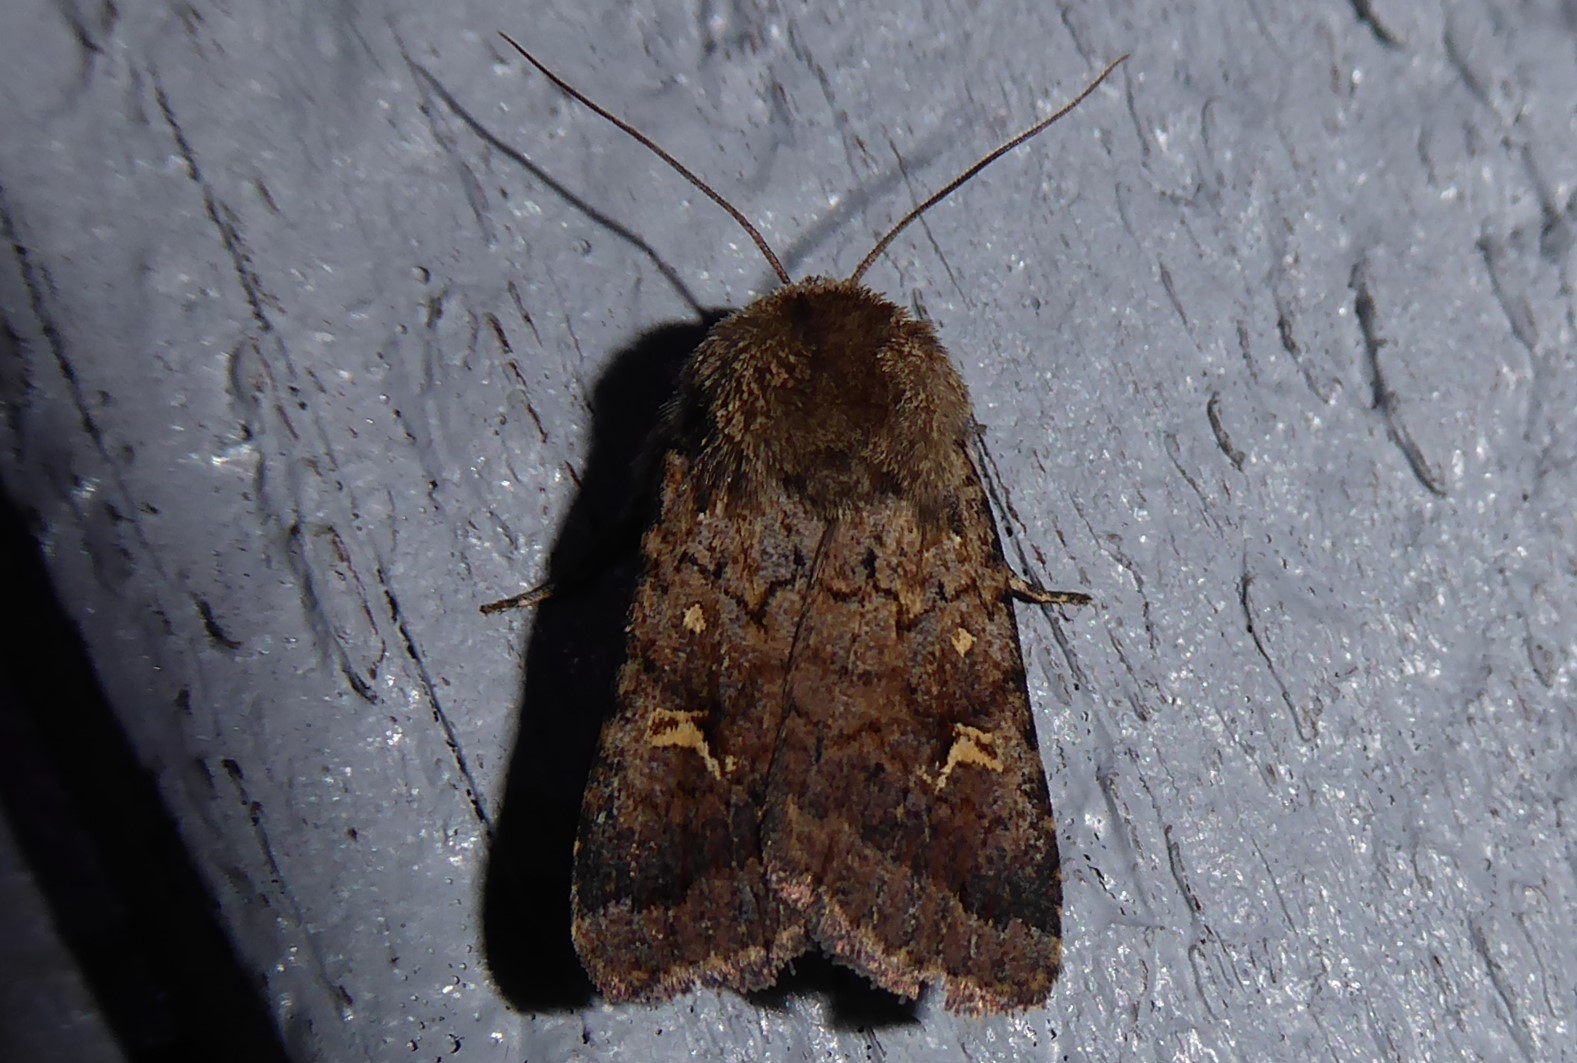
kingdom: Animalia
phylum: Arthropoda
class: Insecta
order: Lepidoptera
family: Noctuidae
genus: Proteuxoa
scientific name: Proteuxoa tetronycha
